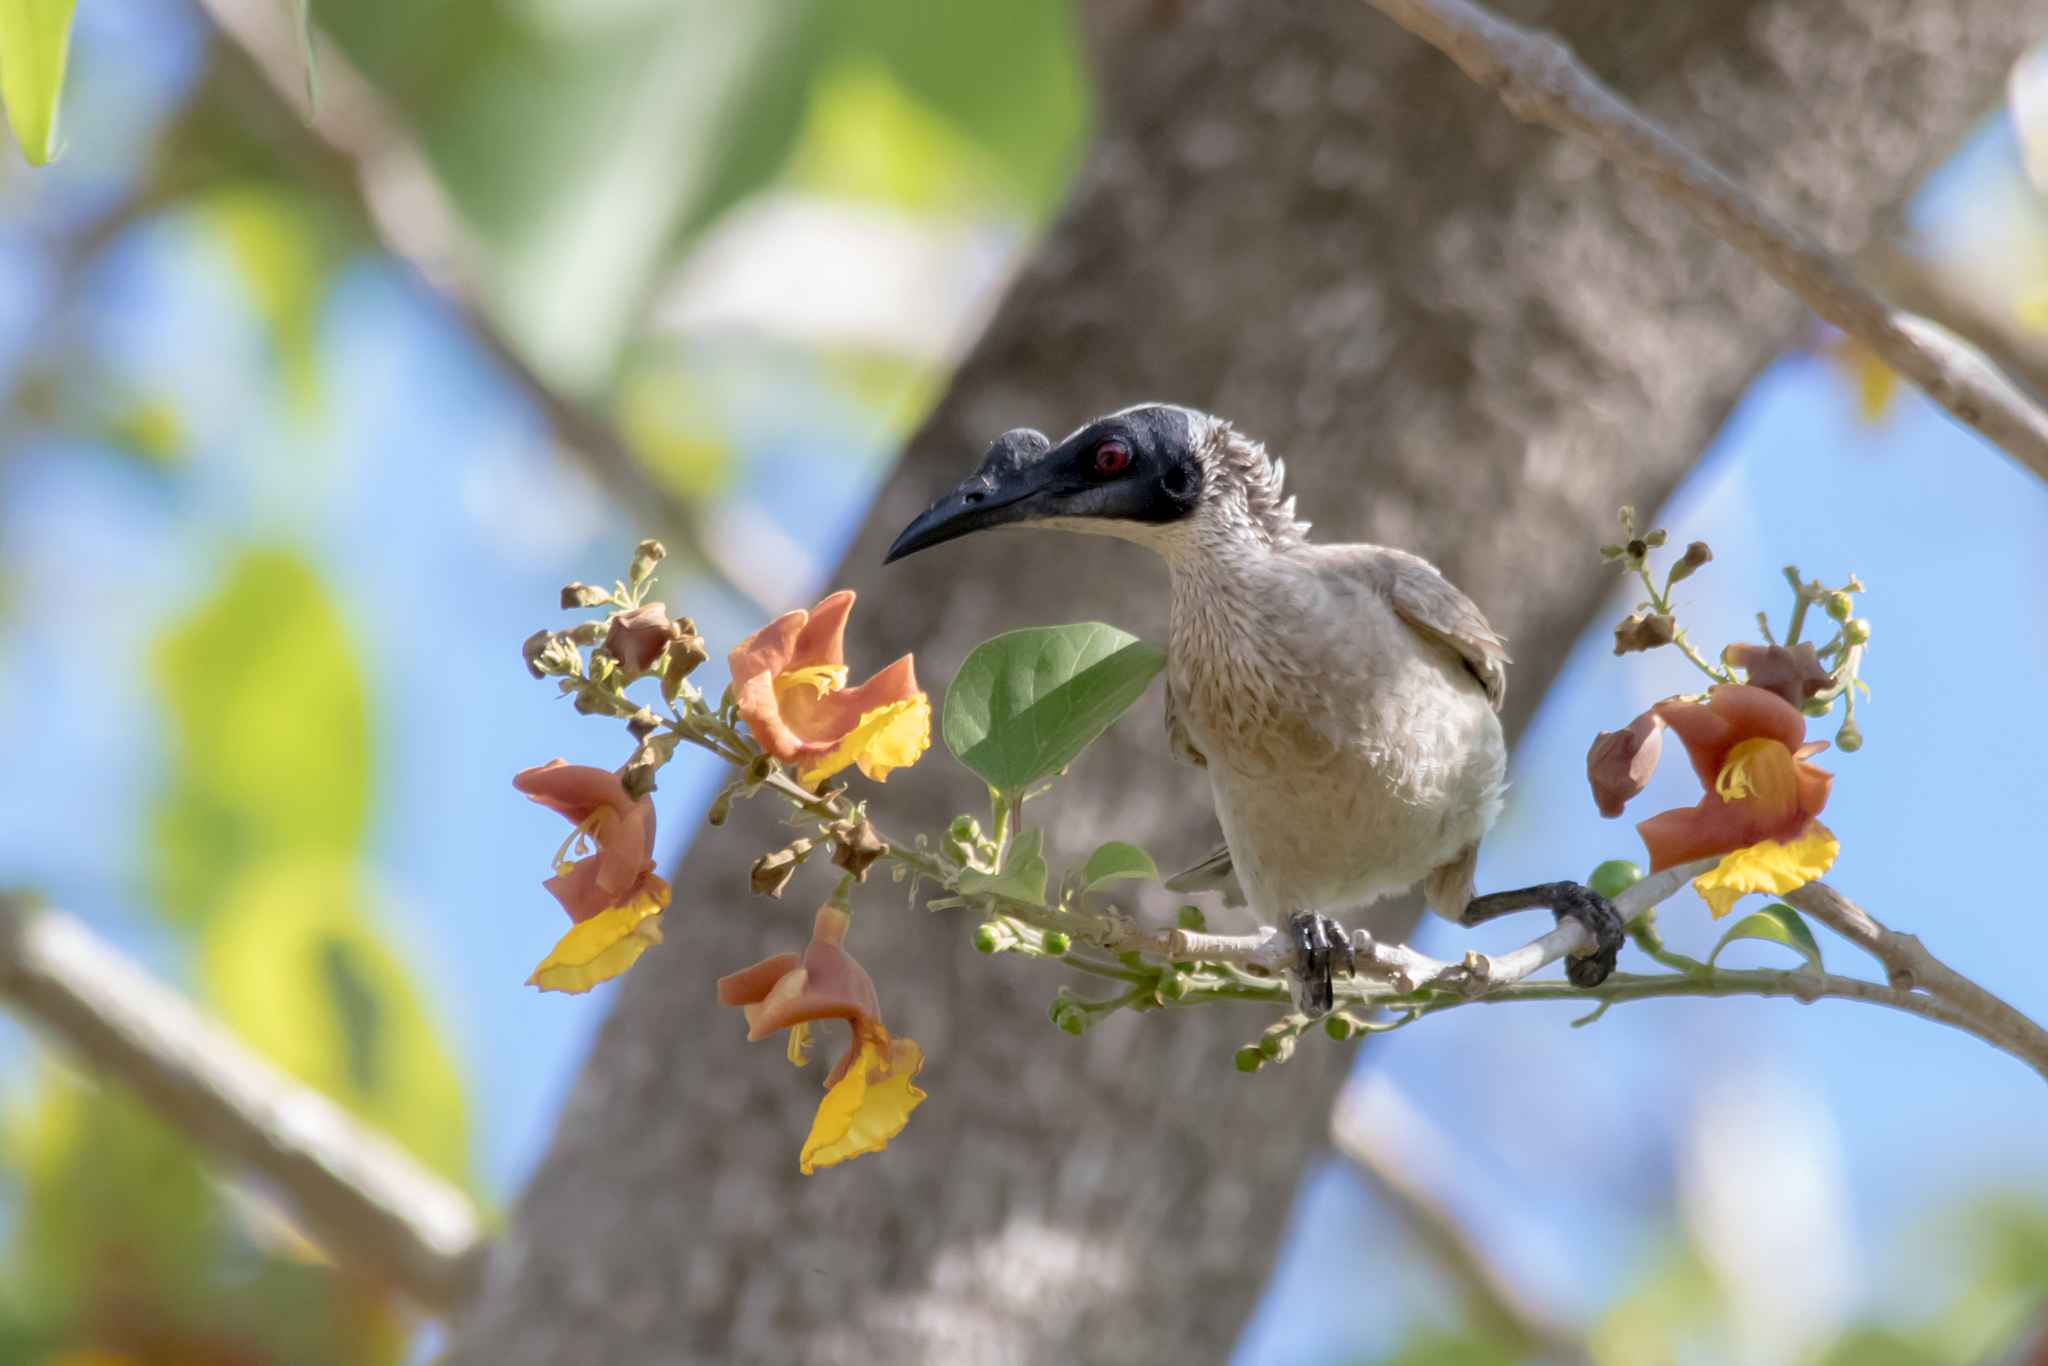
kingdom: Animalia
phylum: Chordata
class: Aves
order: Passeriformes
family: Meliphagidae
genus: Philemon
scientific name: Philemon argenticeps
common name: Silver-crowned friarbird
